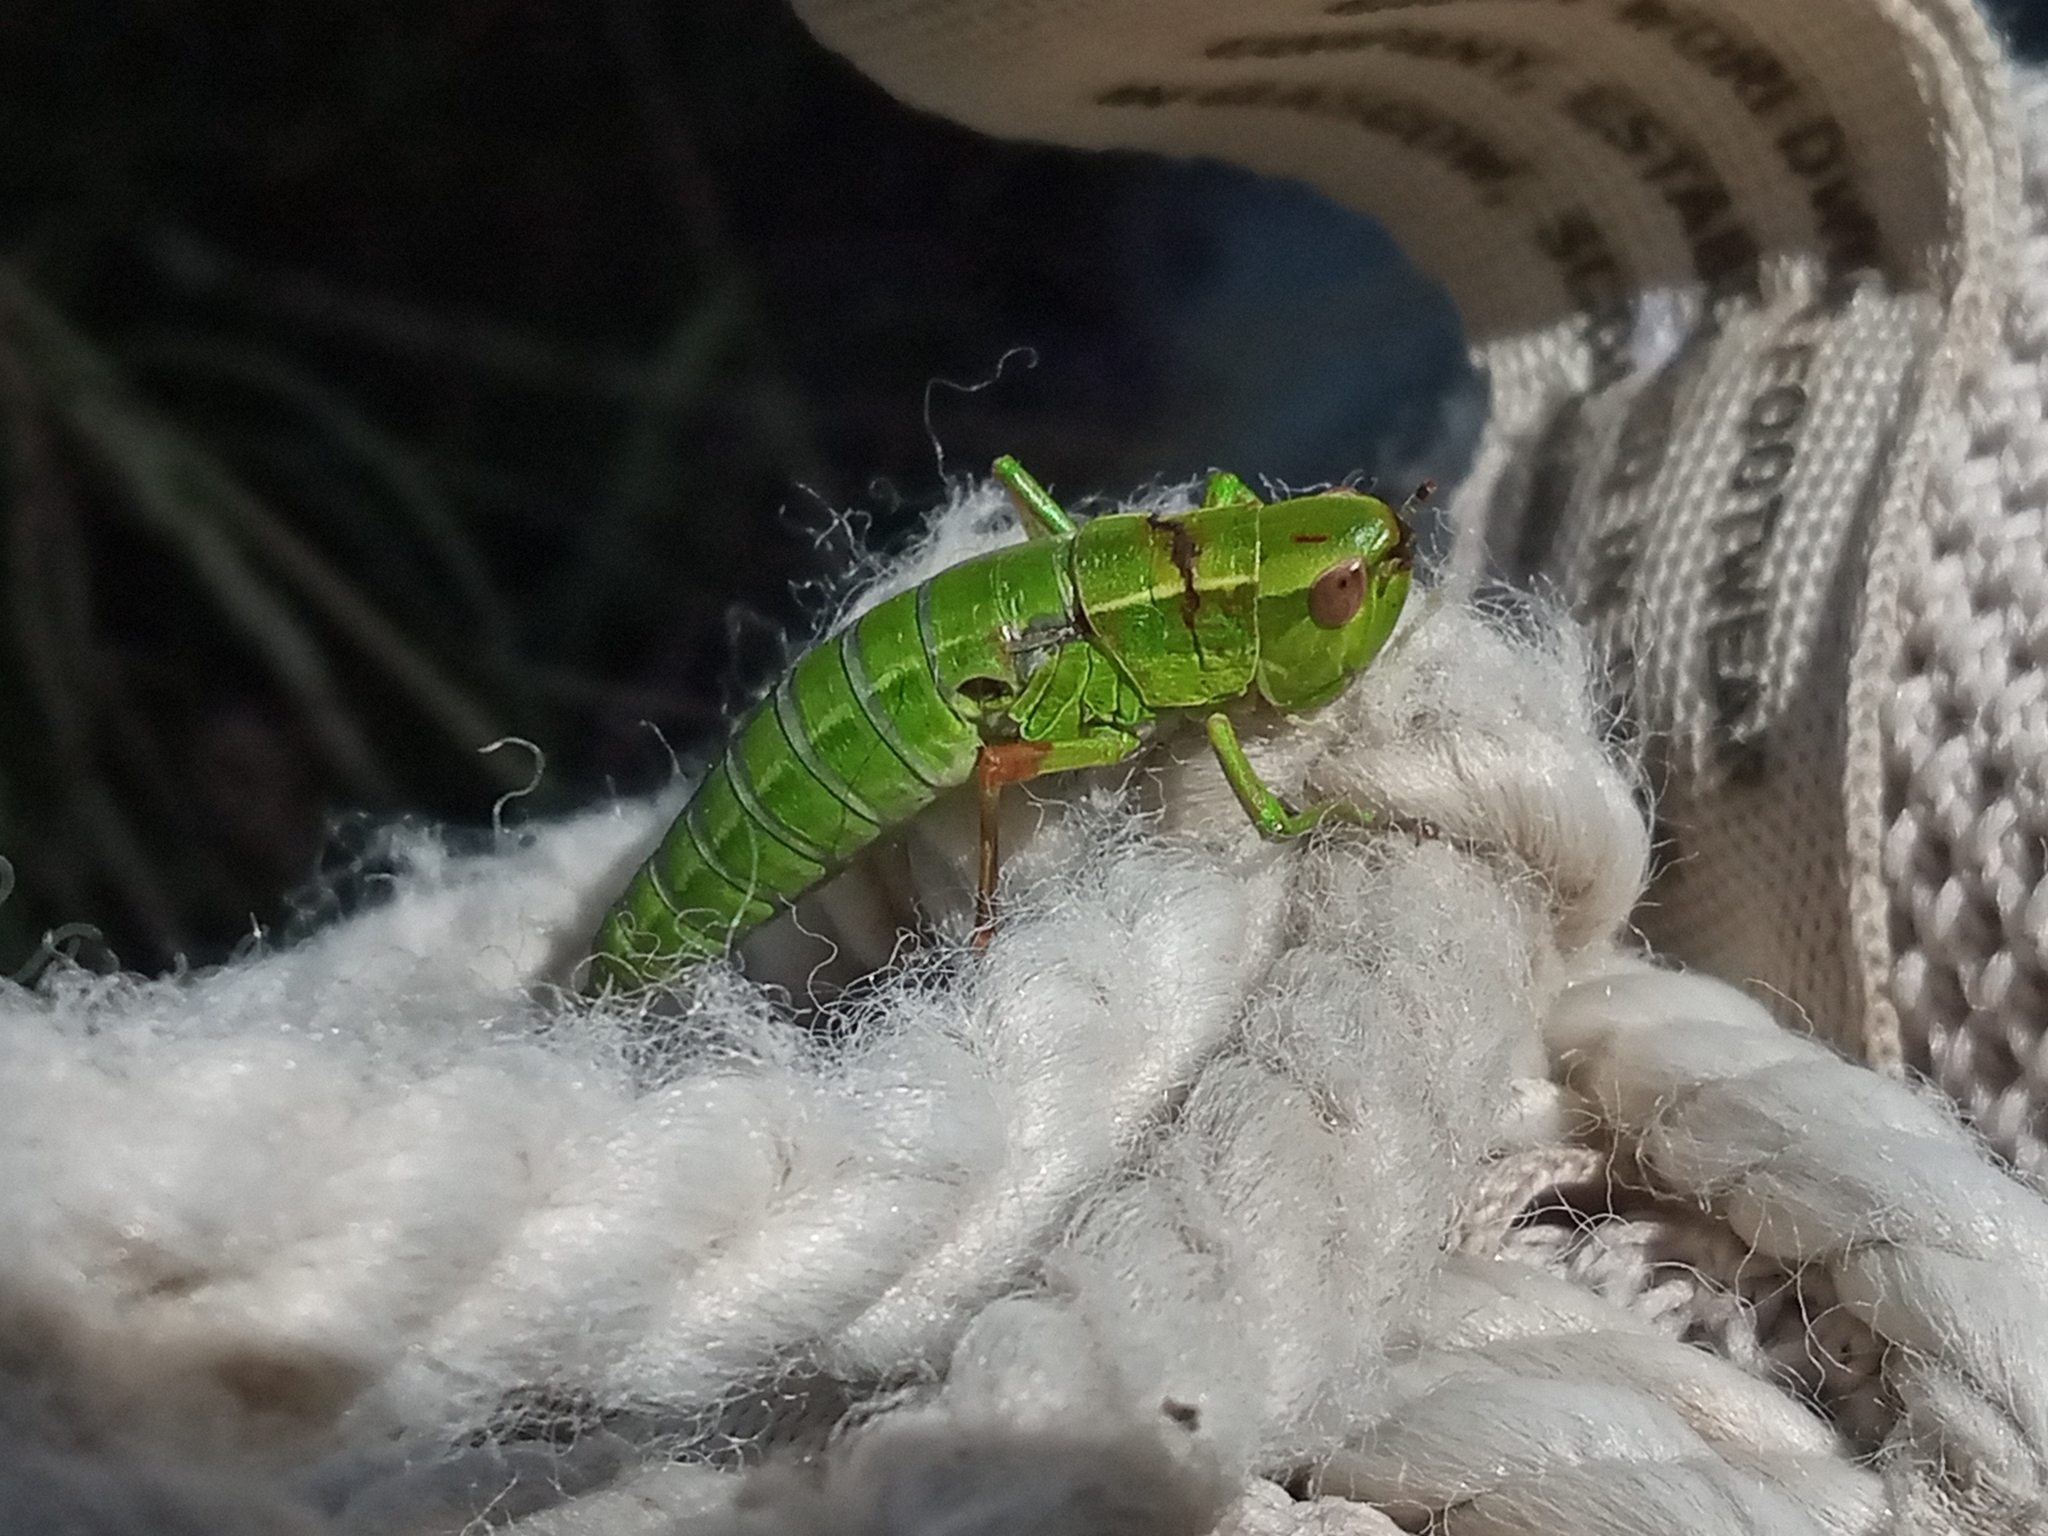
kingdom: Animalia
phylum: Arthropoda
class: Insecta
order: Orthoptera
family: Acrididae
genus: Euthystira
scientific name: Euthystira brachyptera
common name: Small gold grasshopper
